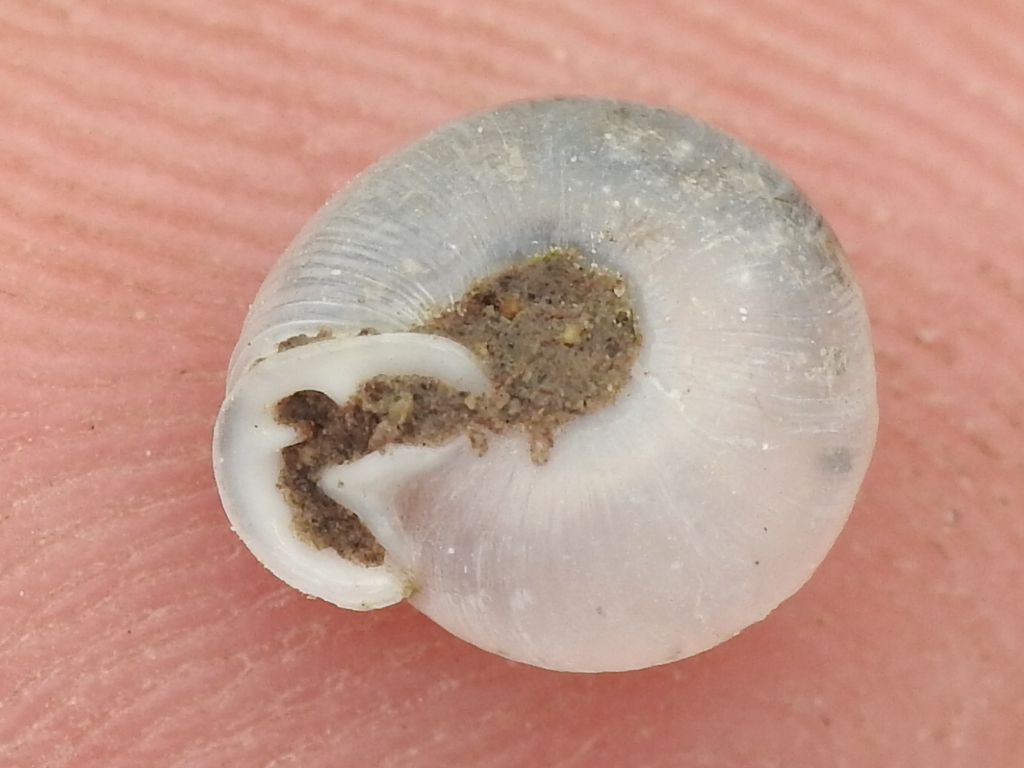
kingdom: Animalia
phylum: Mollusca
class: Gastropoda
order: Stylommatophora
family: Polygyridae
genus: Linisa
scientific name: Linisa texasiana
